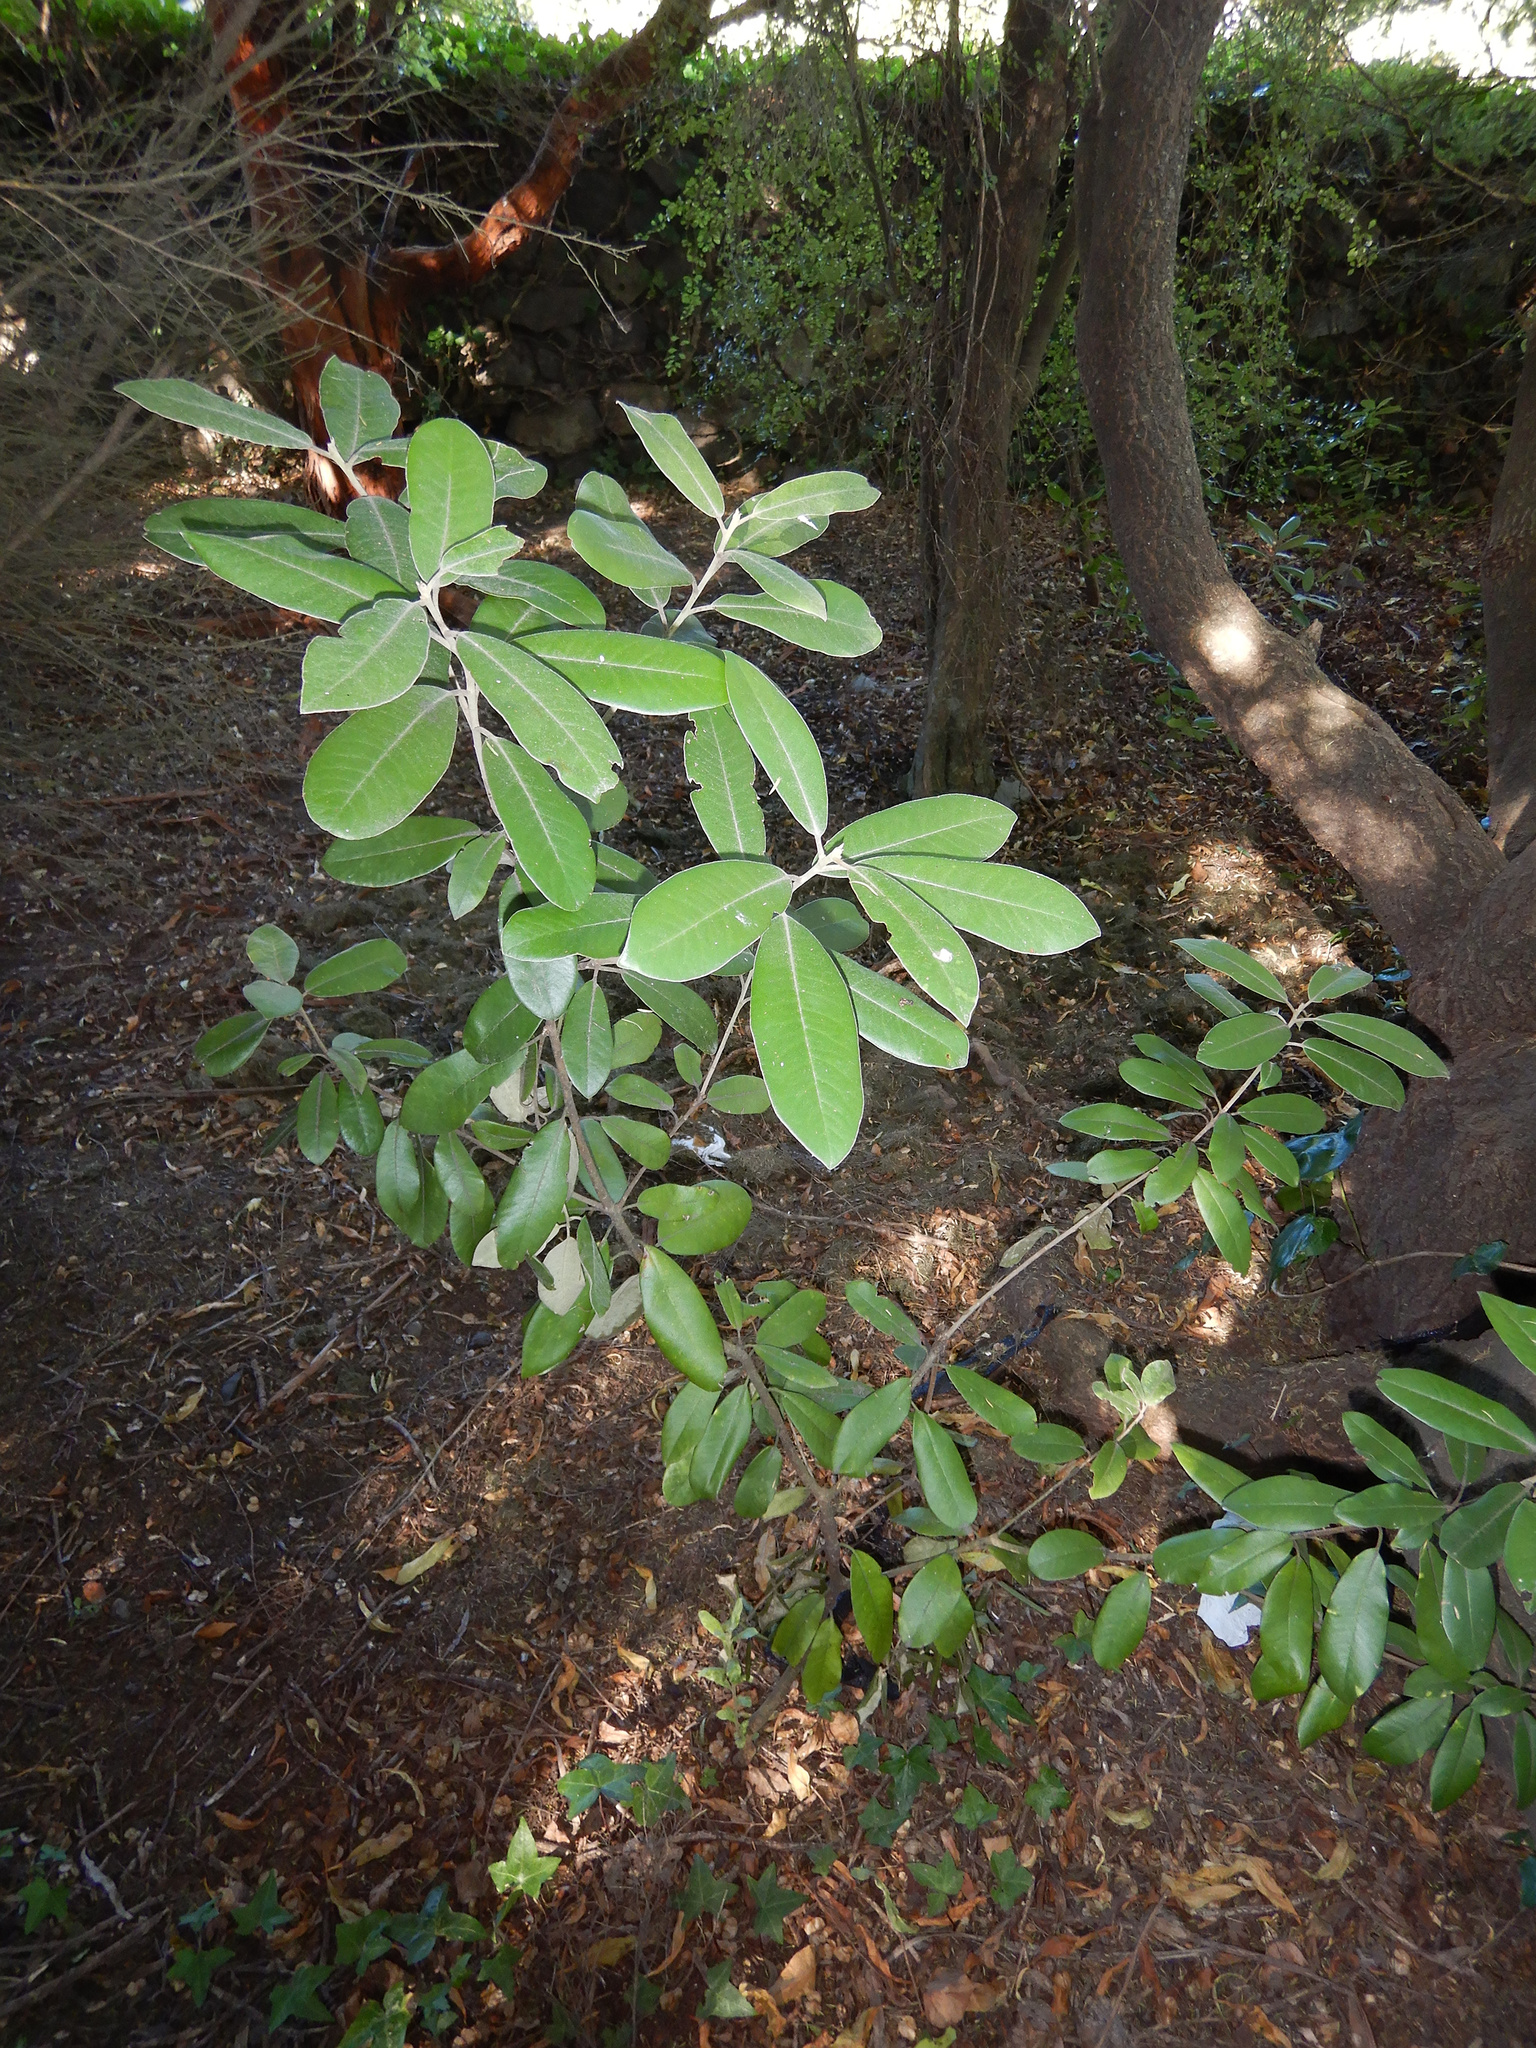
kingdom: Plantae
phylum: Tracheophyta
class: Magnoliopsida
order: Apiales
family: Pittosporaceae
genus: Pittosporum
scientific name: Pittosporum ralphii
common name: Ralph's desertwillow
